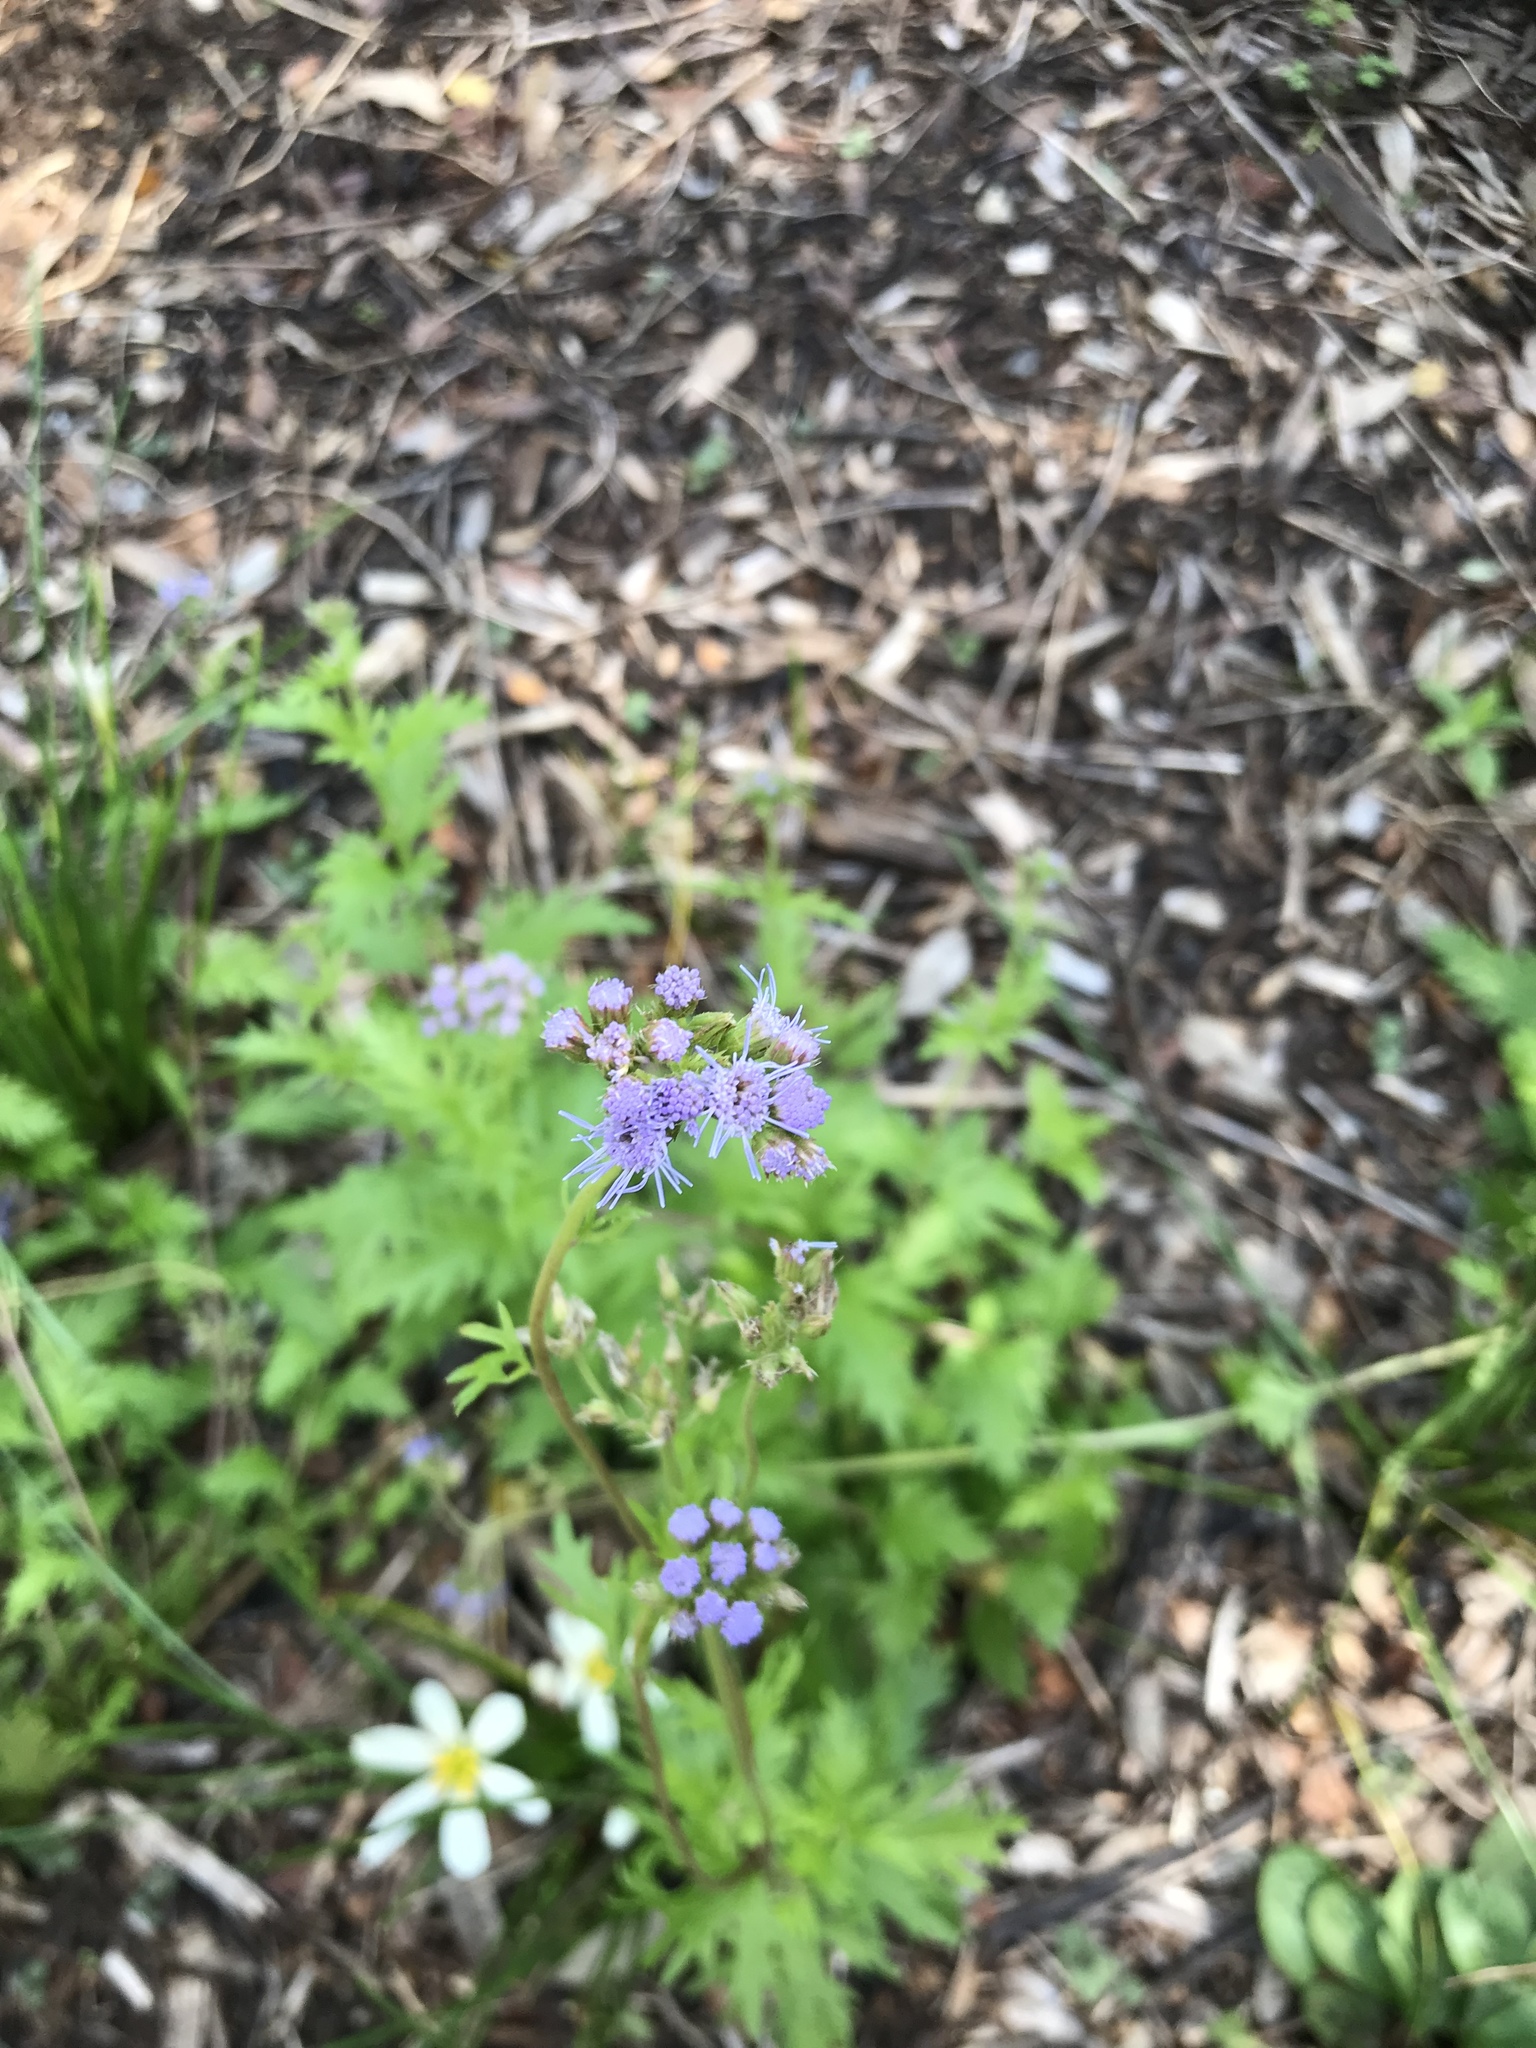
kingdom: Plantae
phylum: Tracheophyta
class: Magnoliopsida
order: Asterales
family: Asteraceae
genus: Conoclinium
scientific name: Conoclinium dissectum
